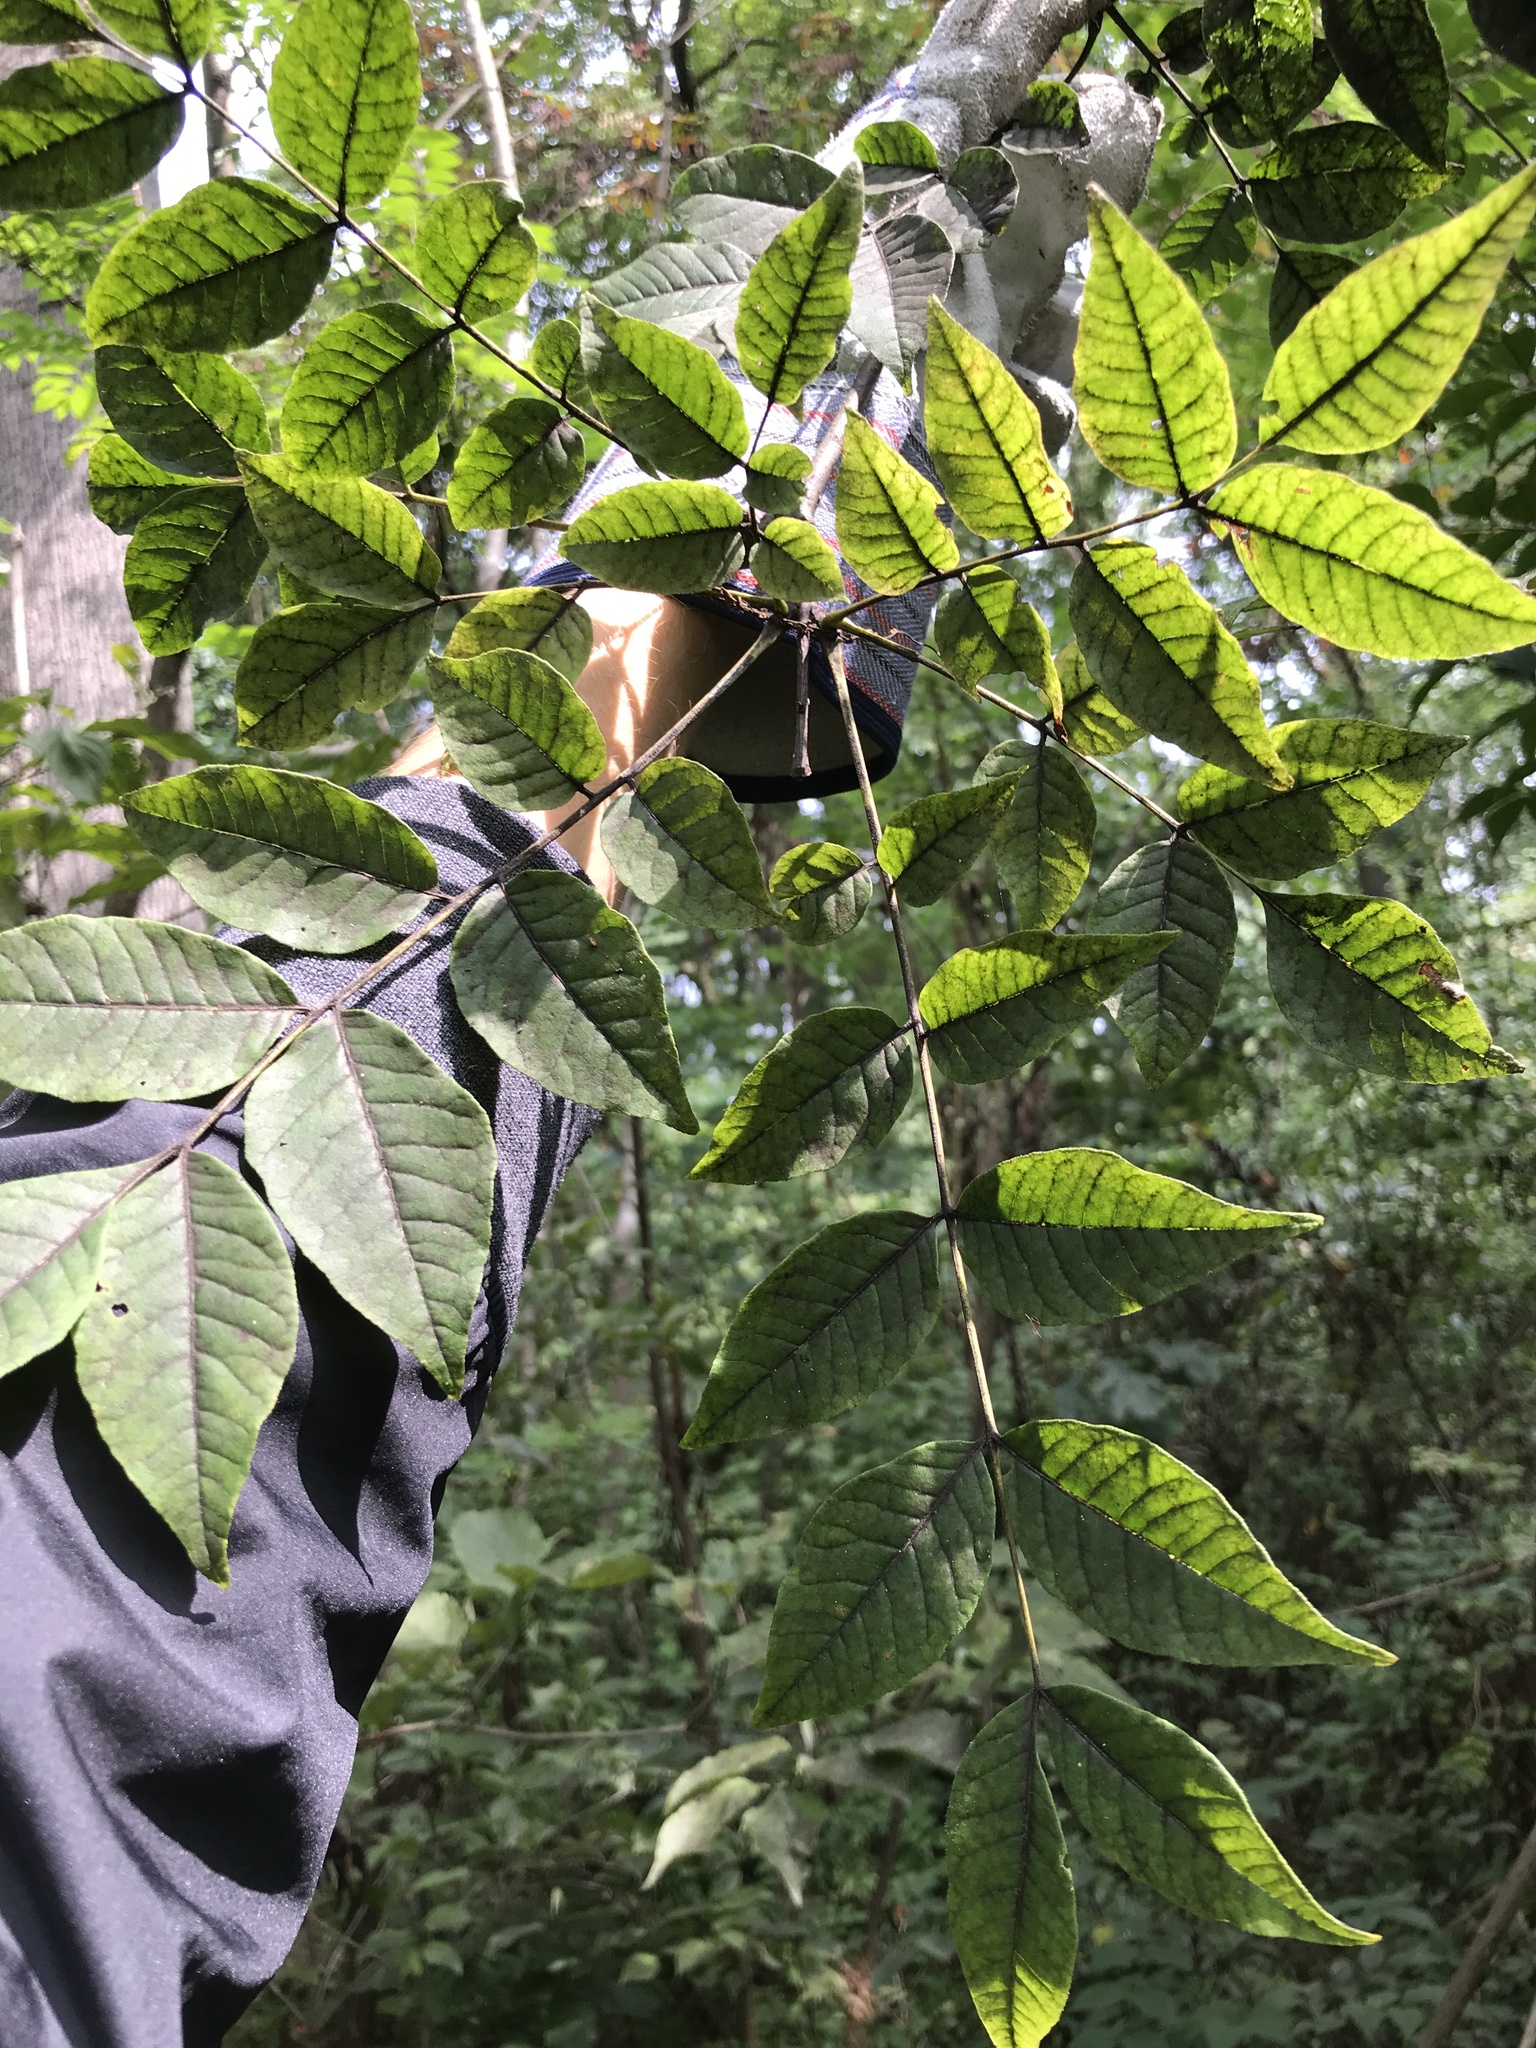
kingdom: Plantae
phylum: Tracheophyta
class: Magnoliopsida
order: Sapindales
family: Rutaceae
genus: Phellodendron
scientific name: Phellodendron amurense
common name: Amur corktree
